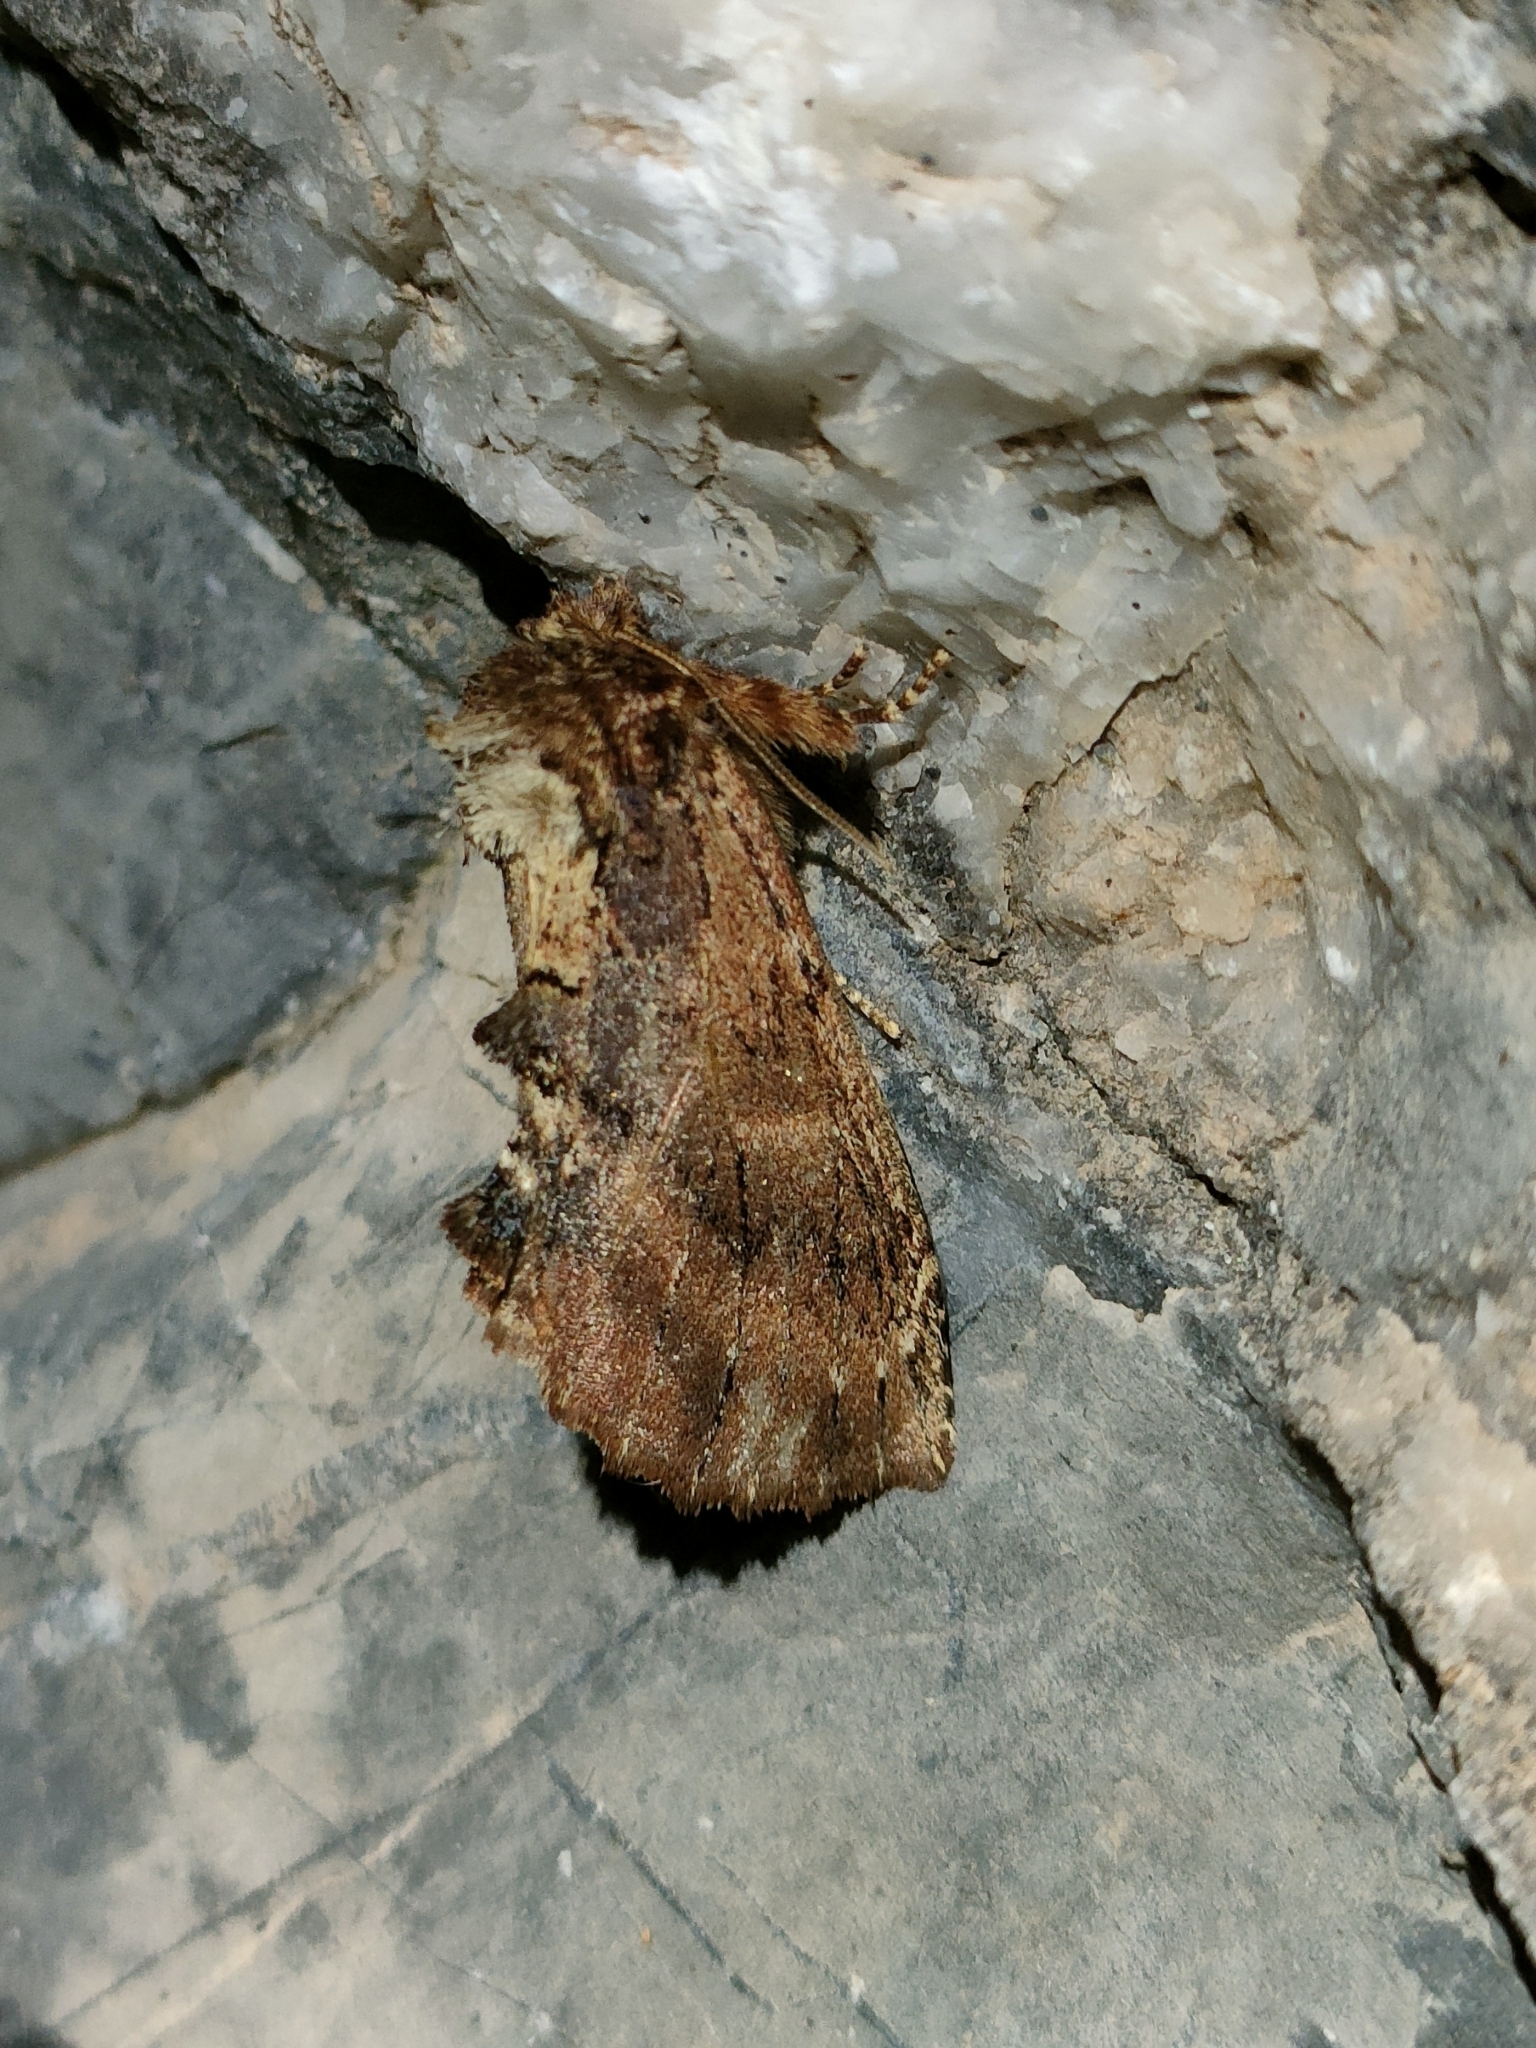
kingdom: Animalia
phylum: Arthropoda
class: Insecta
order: Lepidoptera
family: Notodontidae
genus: Ptilodon
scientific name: Ptilodon capucina
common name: Coxcomb prominent
